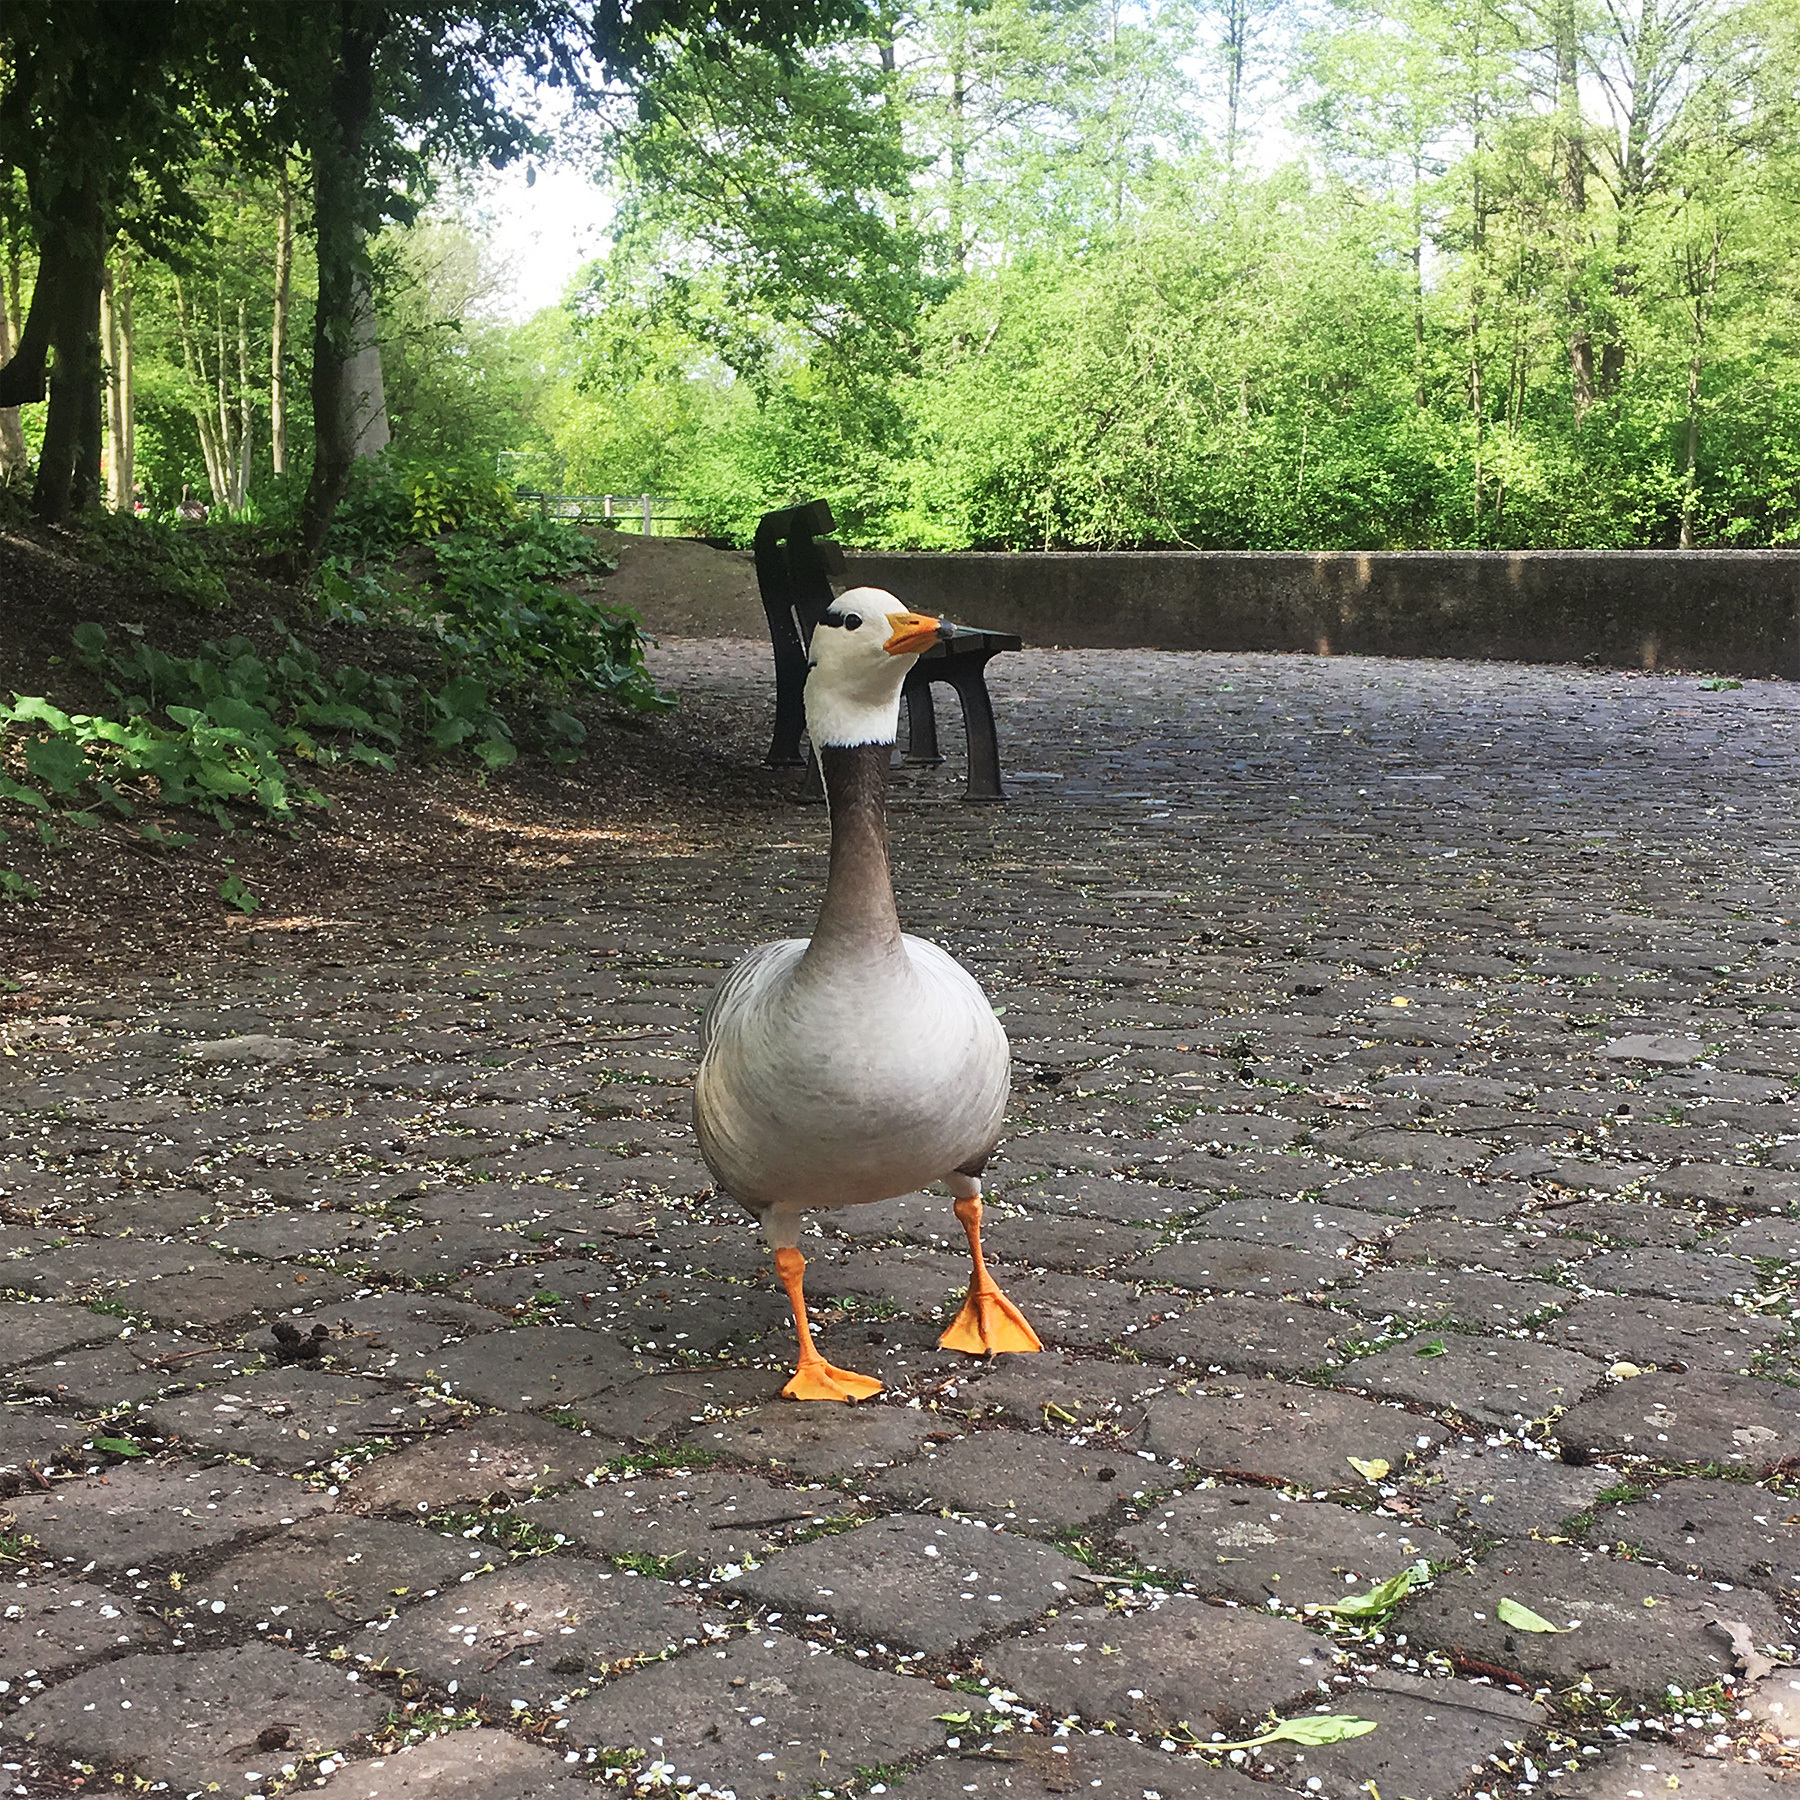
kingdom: Animalia
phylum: Chordata
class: Aves
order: Anseriformes
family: Anatidae
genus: Anser
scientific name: Anser indicus
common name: Bar-headed goose
